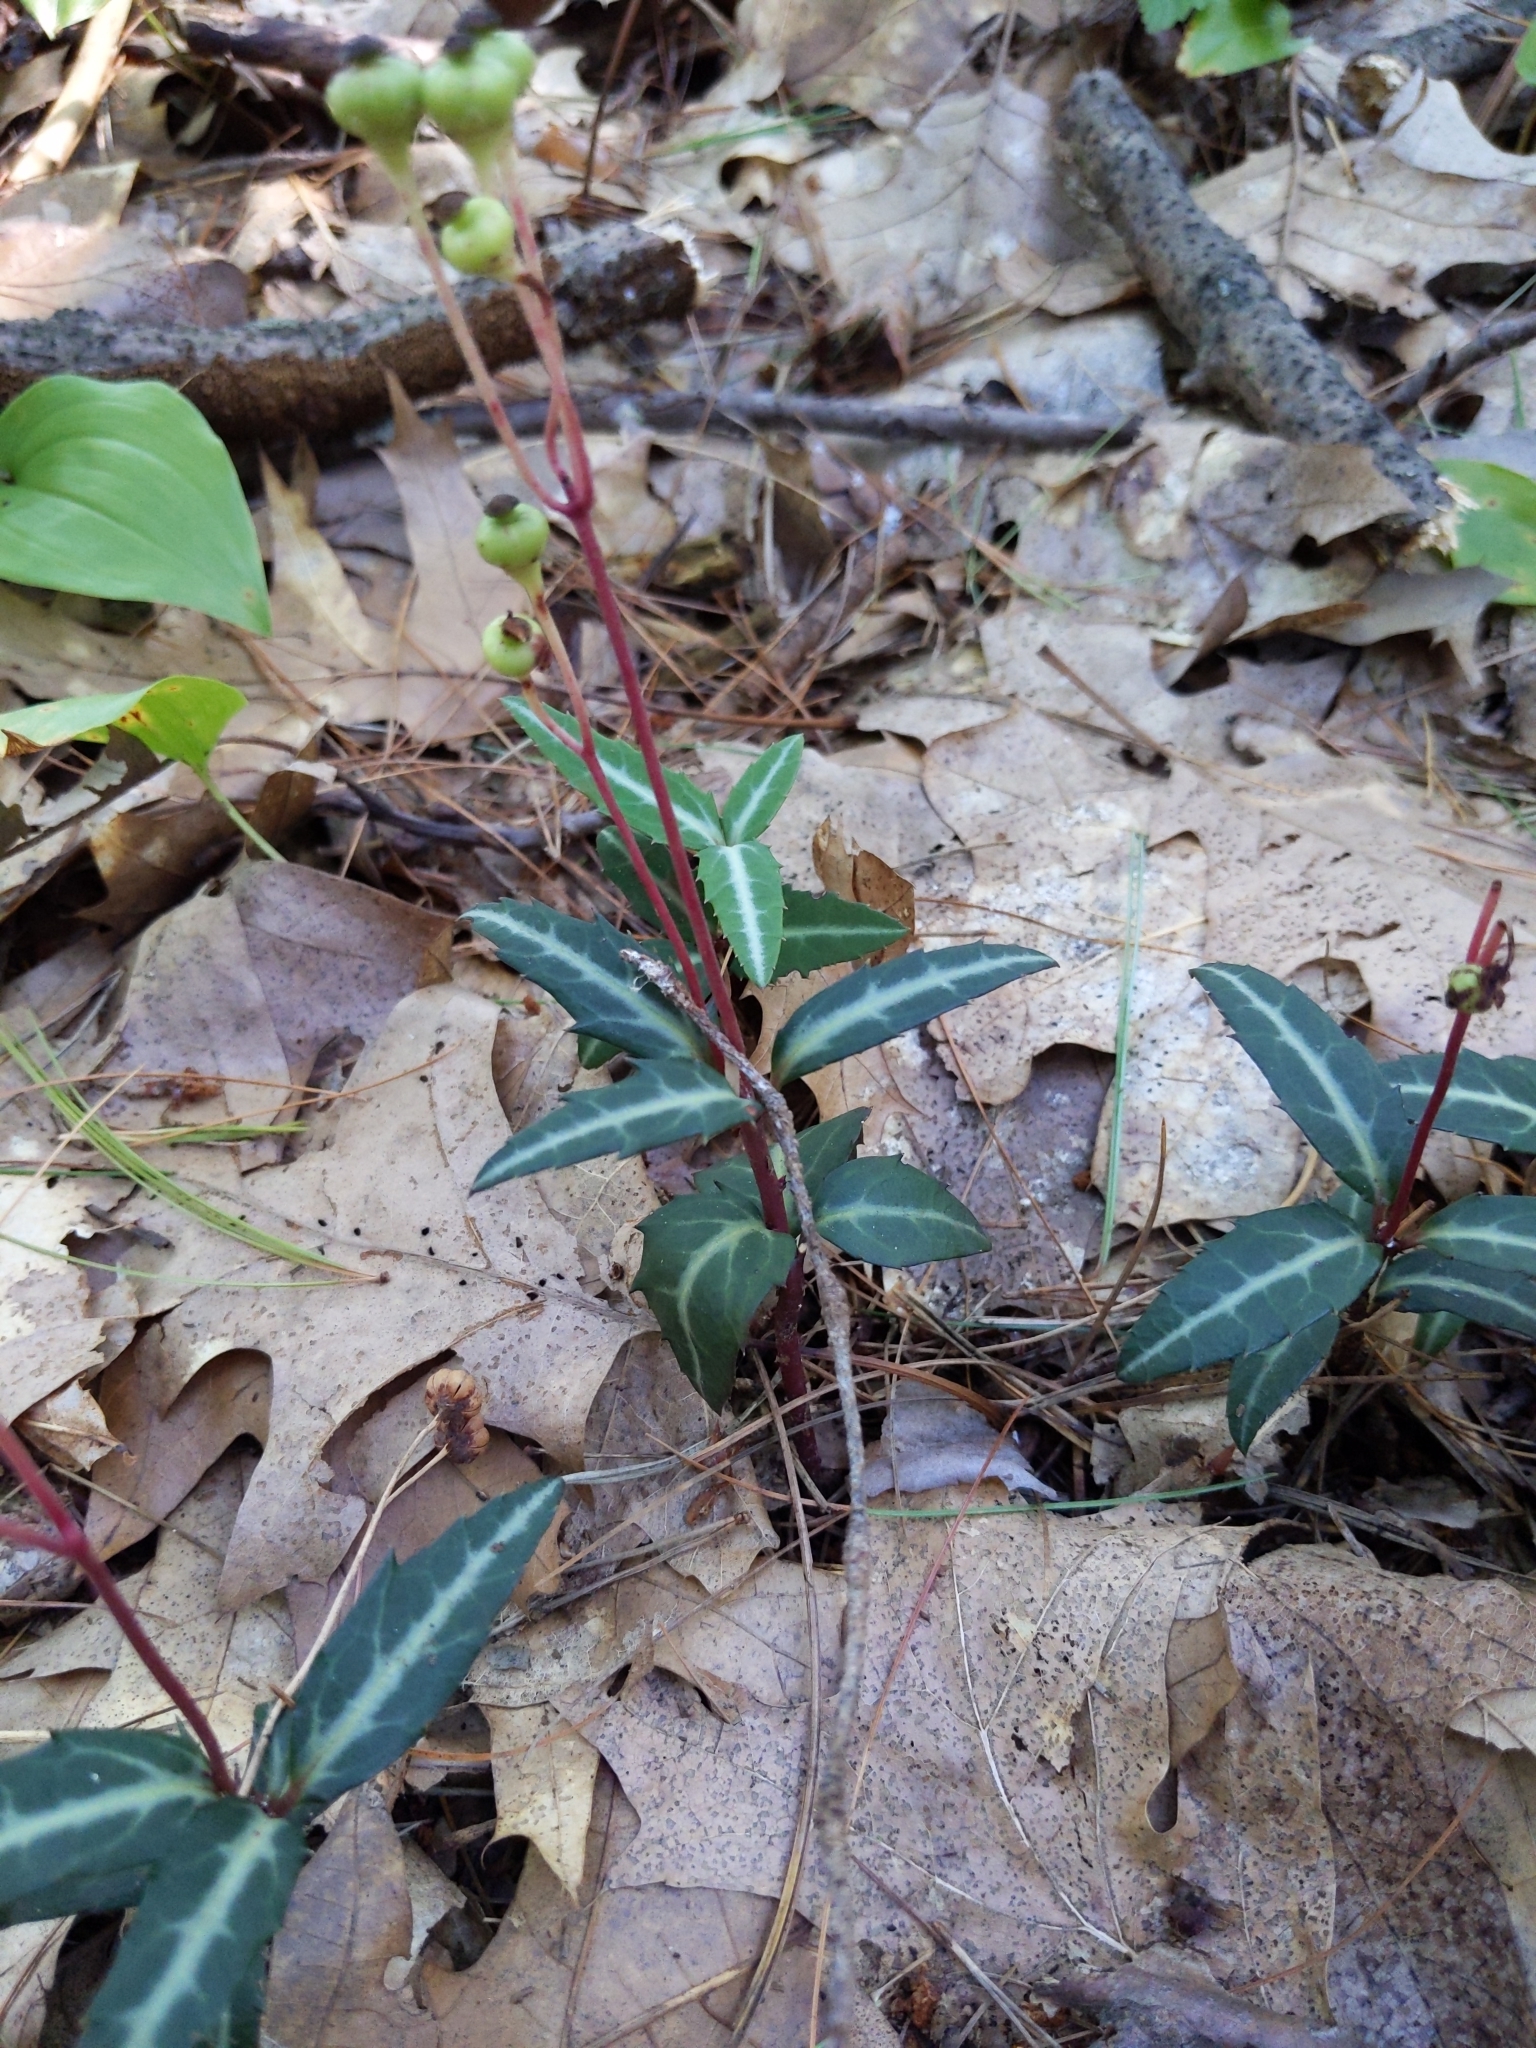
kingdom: Plantae
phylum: Tracheophyta
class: Magnoliopsida
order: Ericales
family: Ericaceae
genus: Chimaphila
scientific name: Chimaphila maculata
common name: Spotted pipsissewa
